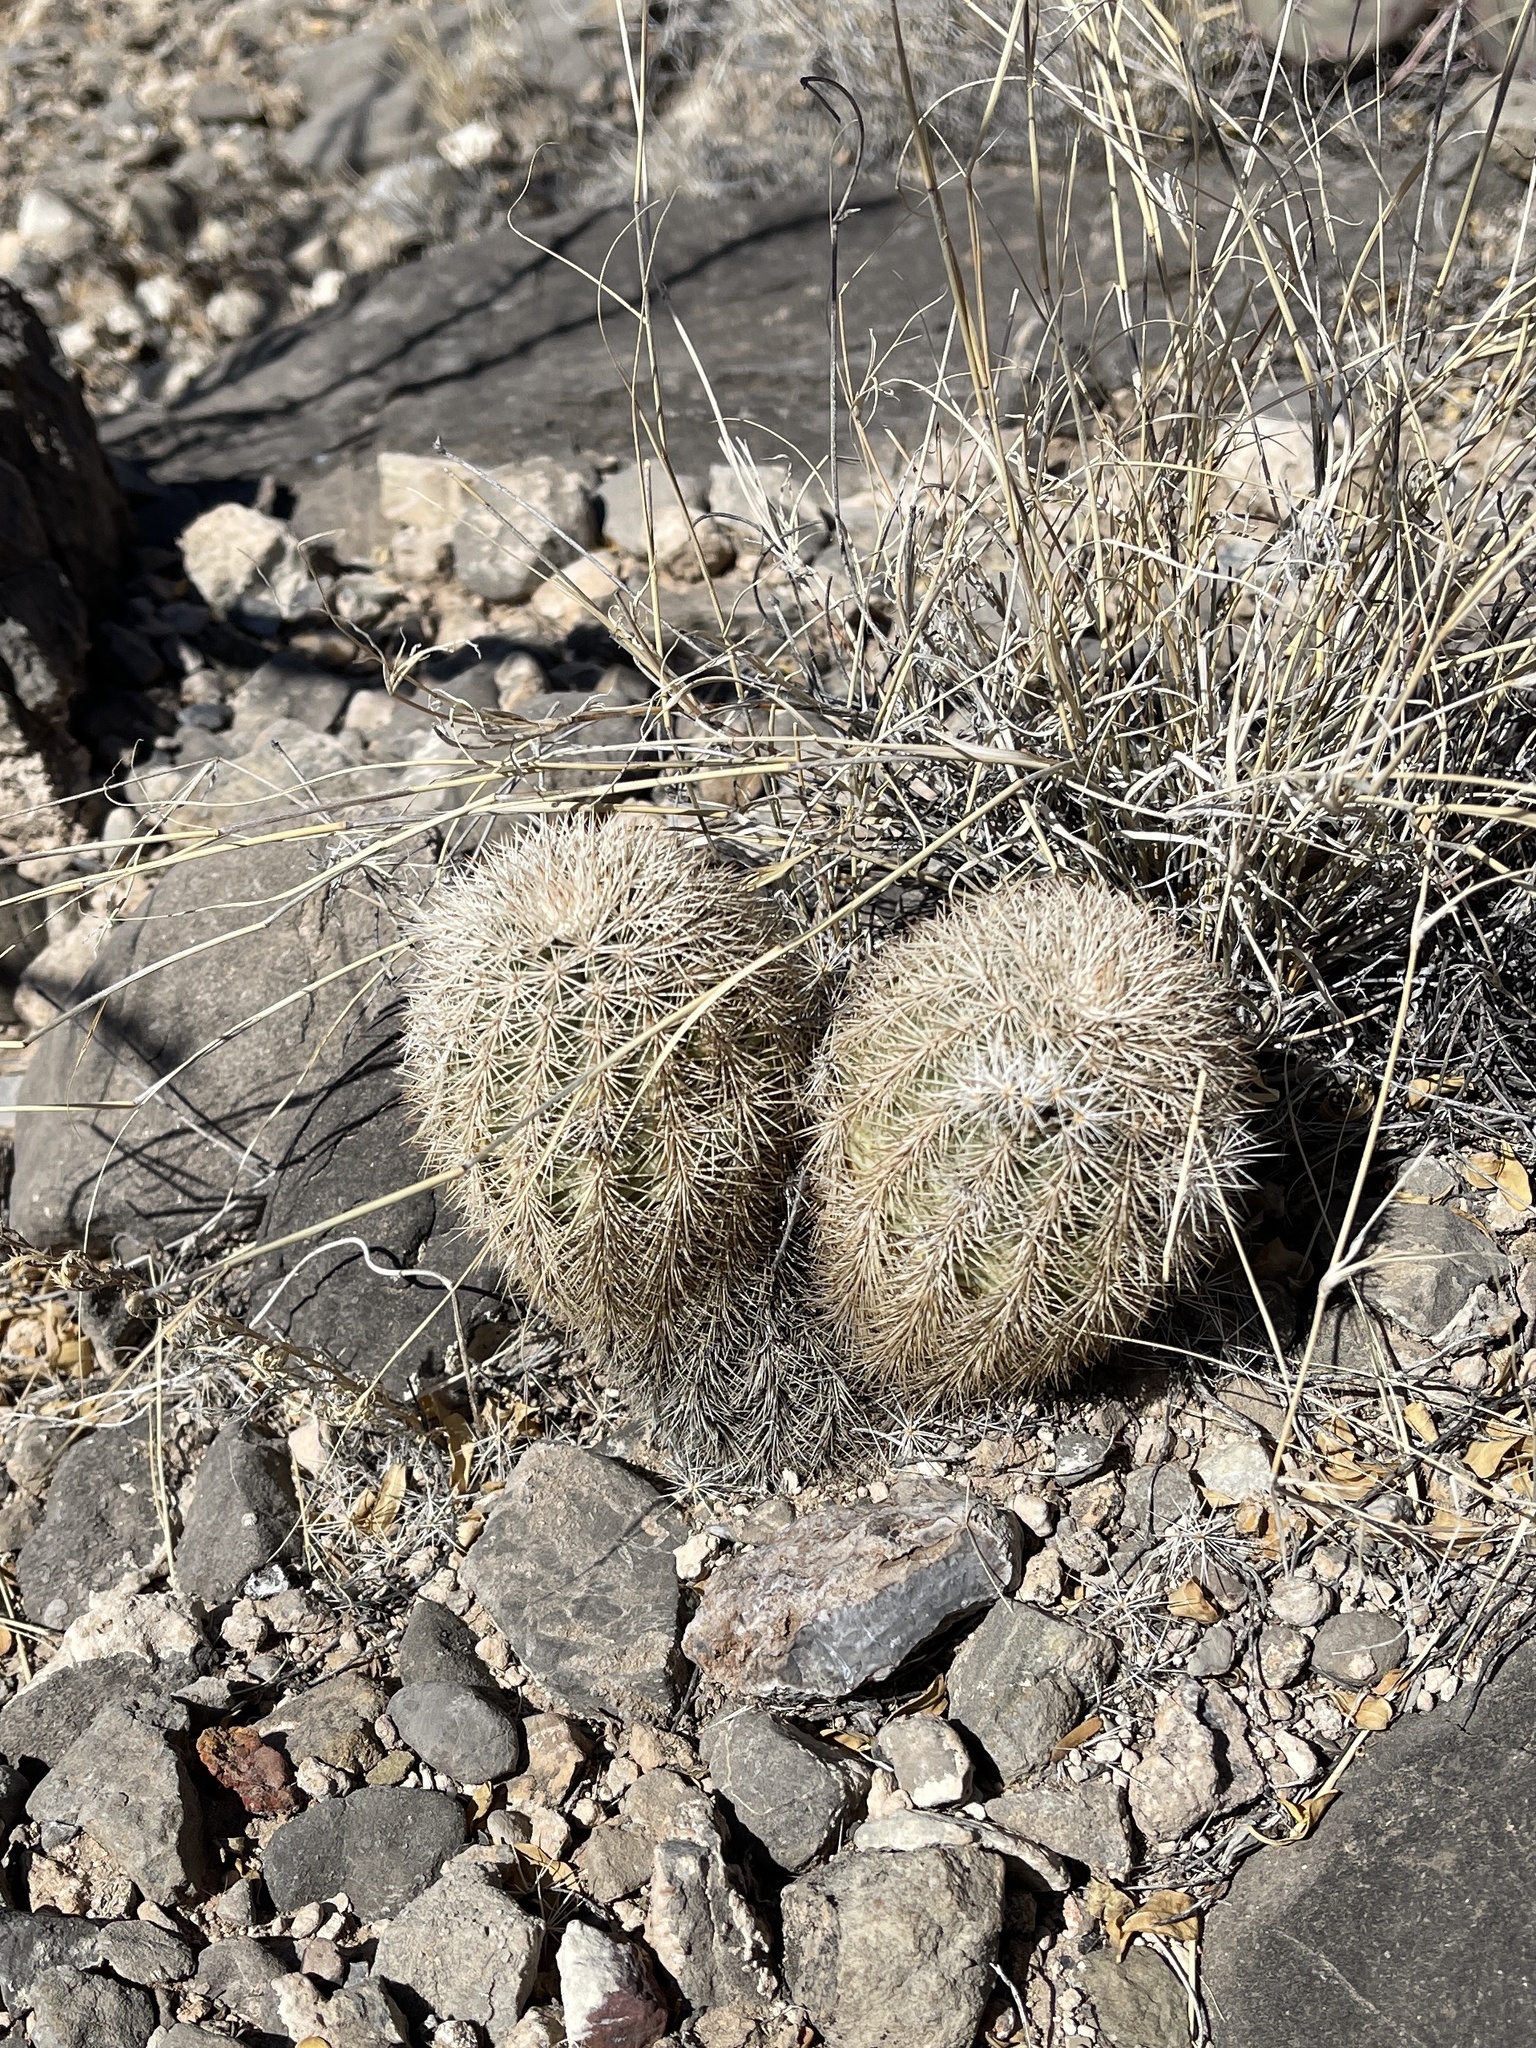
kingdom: Plantae
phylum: Tracheophyta
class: Magnoliopsida
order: Caryophyllales
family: Cactaceae
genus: Echinocereus
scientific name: Echinocereus dasyacanthus
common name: Spiny hedgehog cactus
